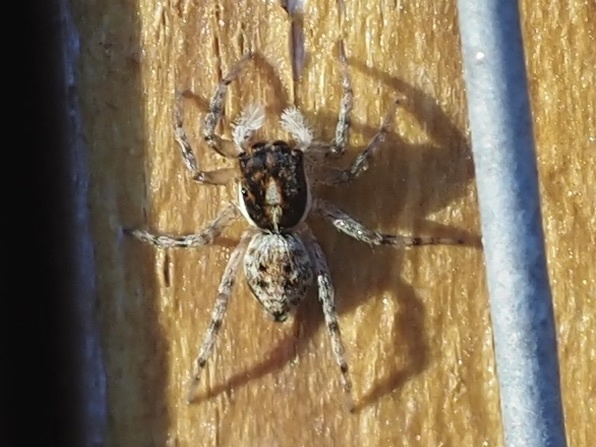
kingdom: Animalia
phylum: Arthropoda
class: Arachnida
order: Araneae
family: Salticidae
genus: Menemerus
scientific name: Menemerus semilimbatus
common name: Jumping spider
